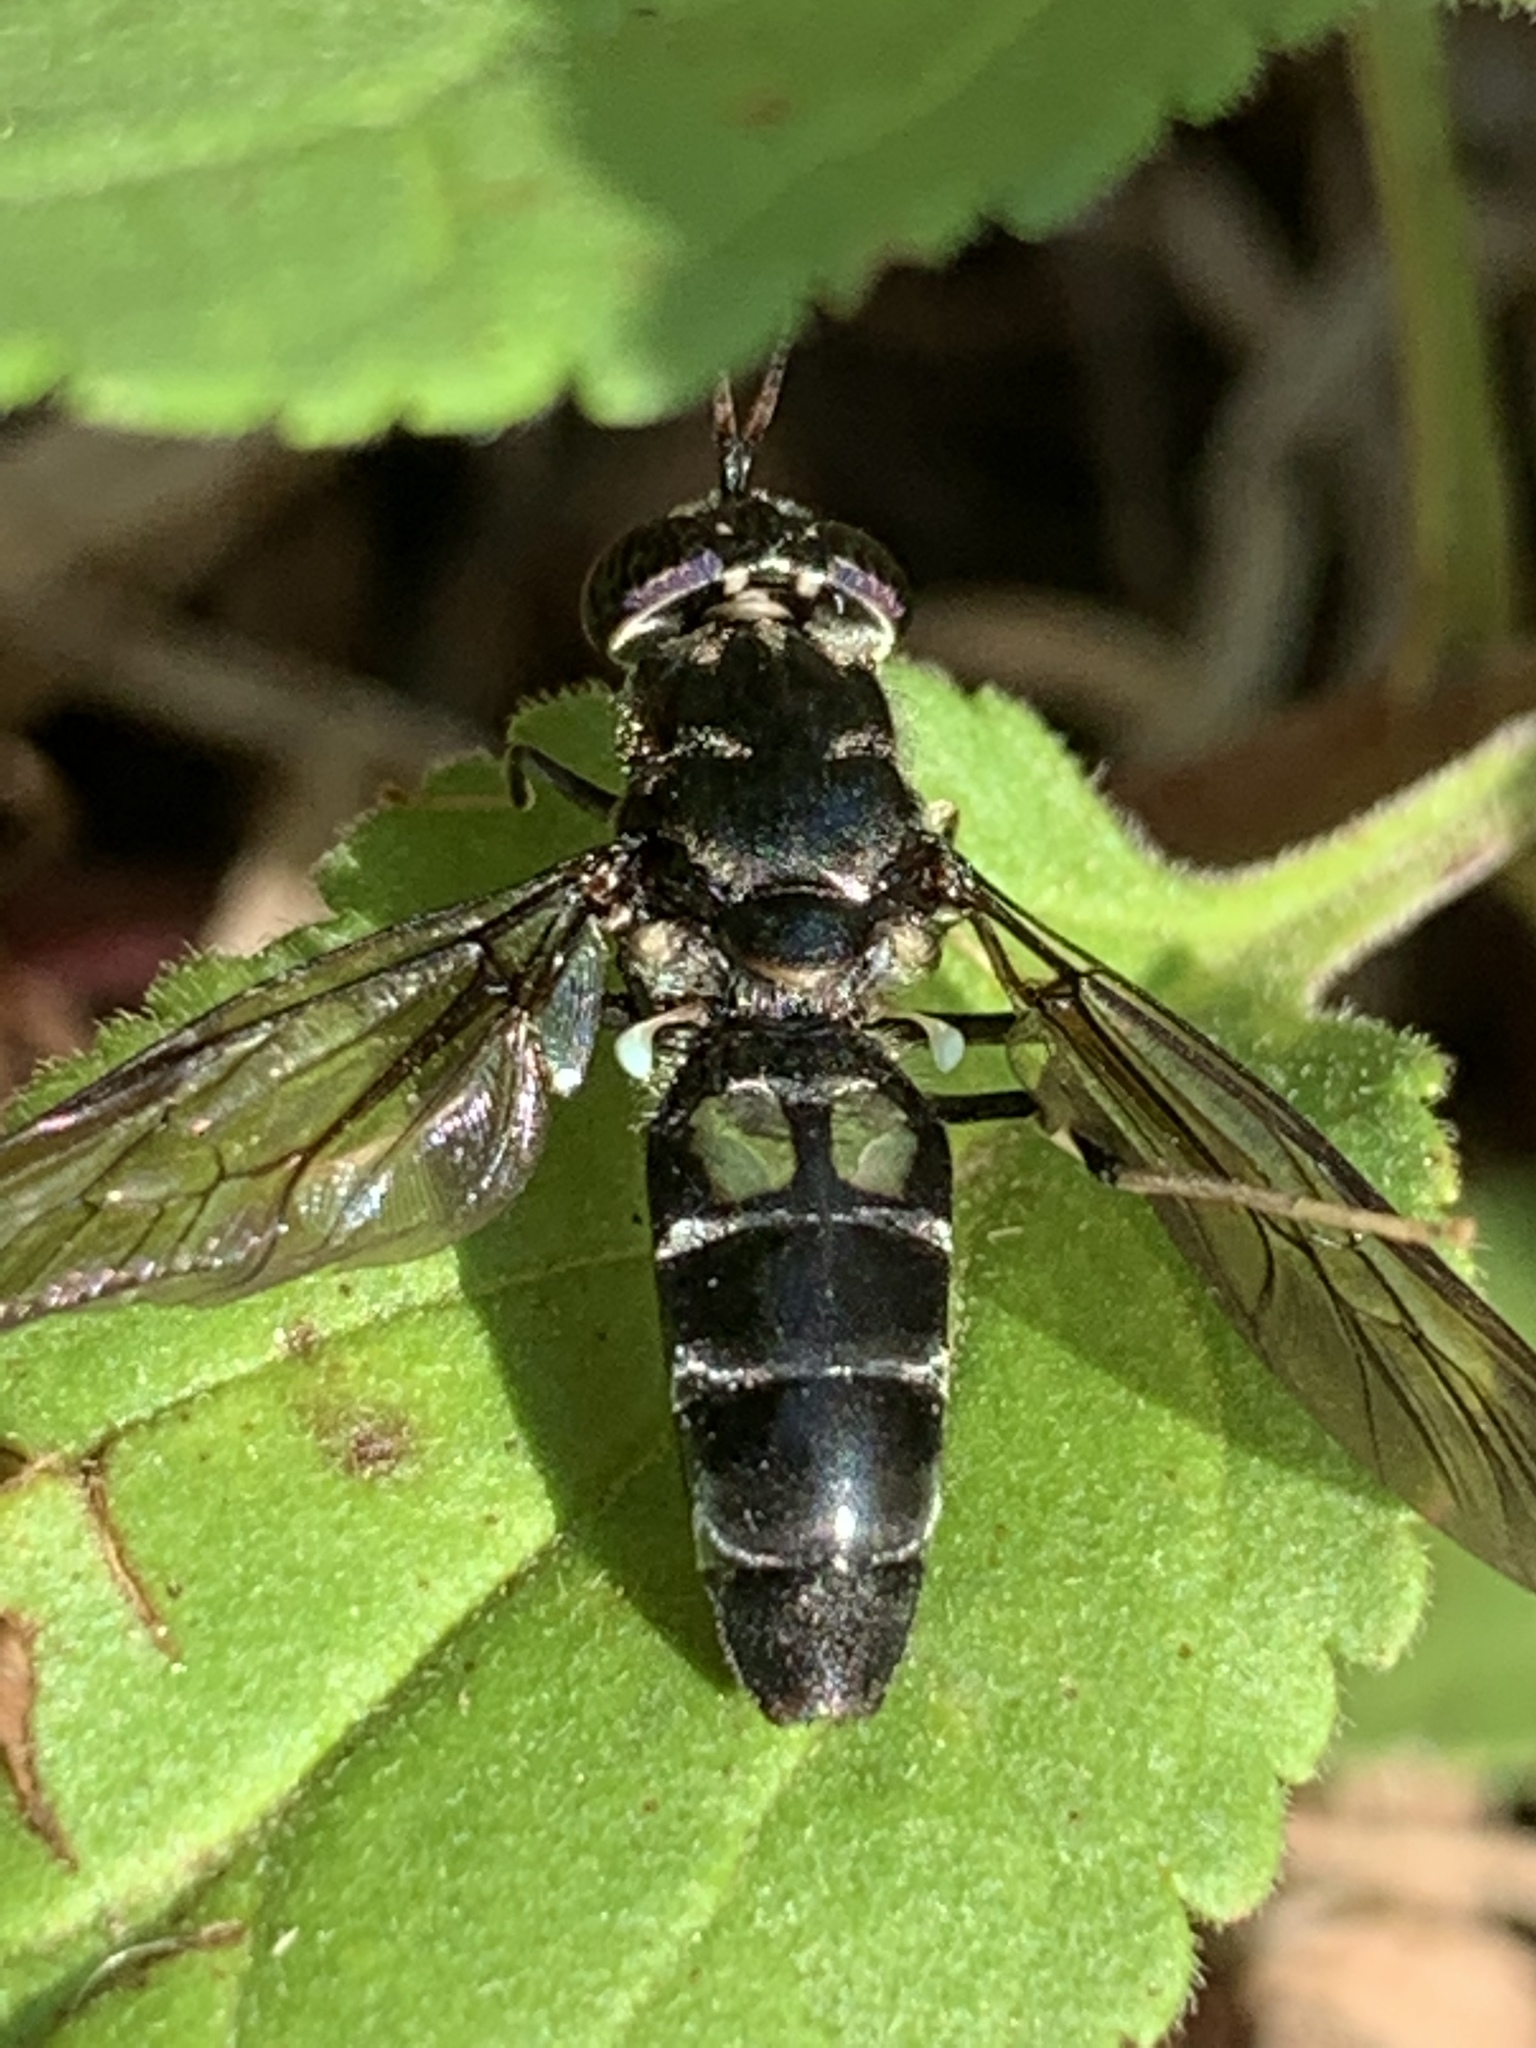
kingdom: Animalia
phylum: Arthropoda
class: Insecta
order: Diptera
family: Stratiomyidae
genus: Hermetia
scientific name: Hermetia illucens
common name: Black soldier fly
